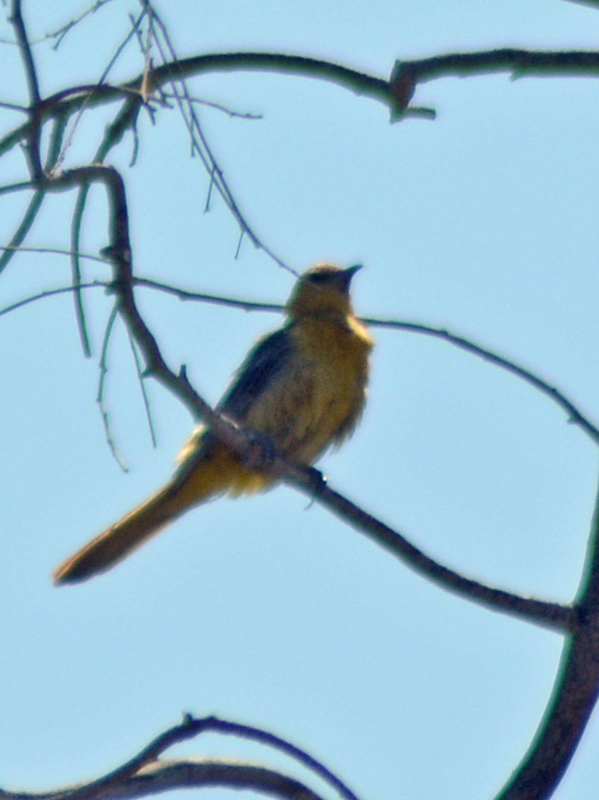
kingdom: Animalia
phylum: Chordata
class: Aves
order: Passeriformes
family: Icteridae
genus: Icterus
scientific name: Icterus cucullatus
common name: Hooded oriole
